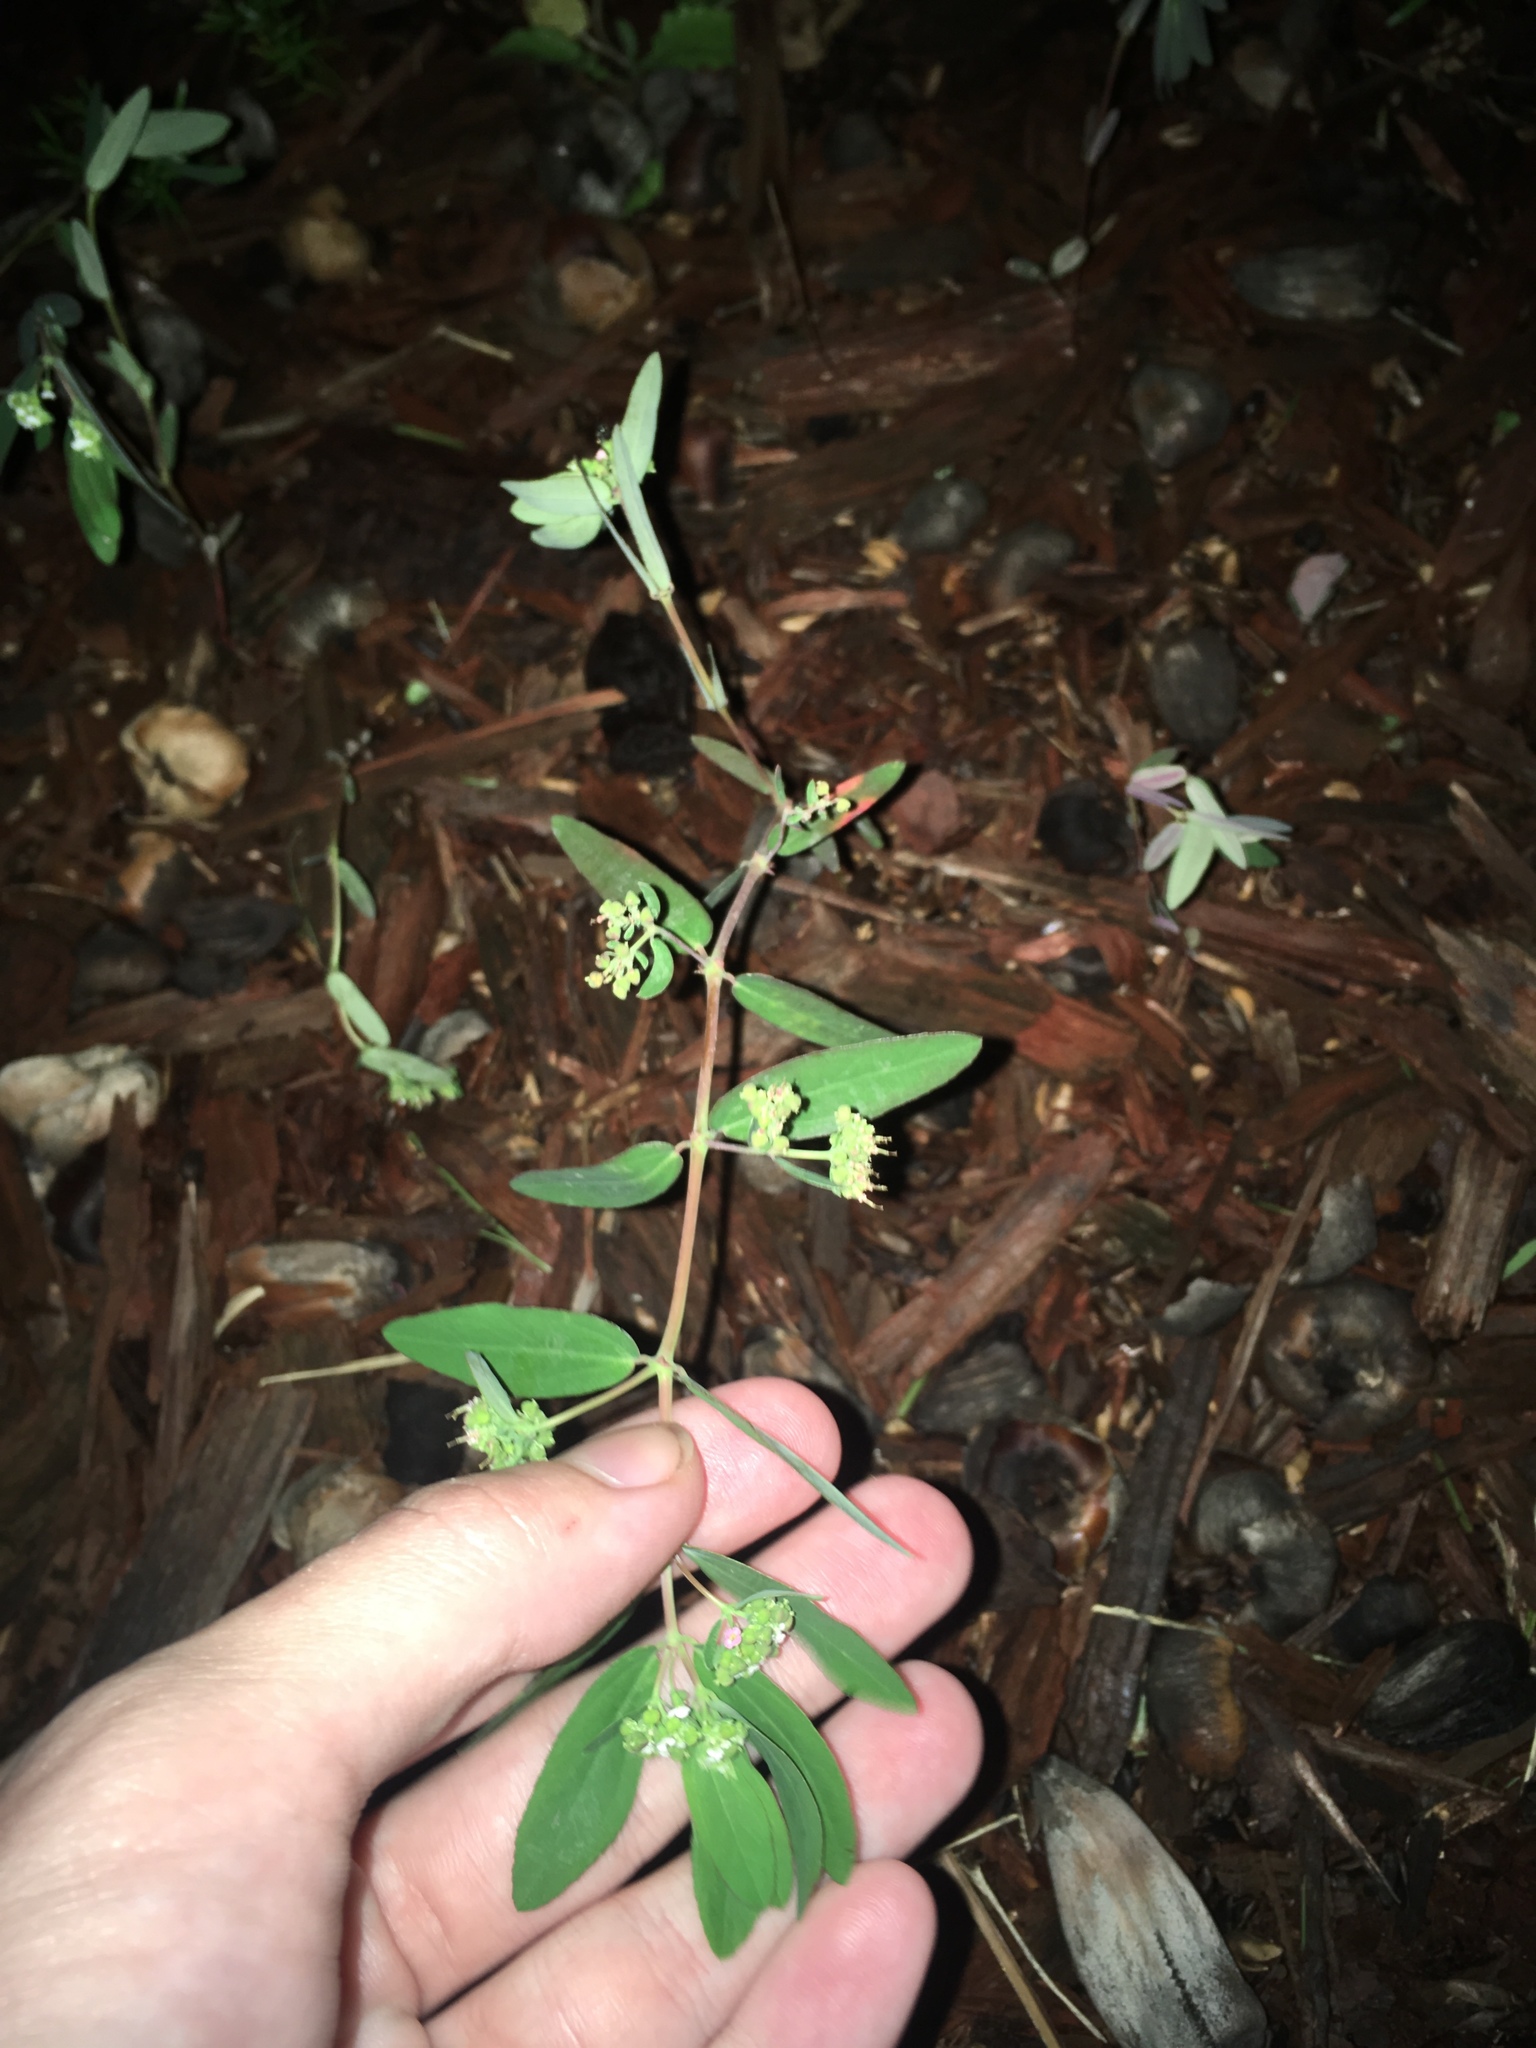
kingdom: Plantae
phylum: Tracheophyta
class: Magnoliopsida
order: Malpighiales
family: Euphorbiaceae
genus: Euphorbia
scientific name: Euphorbia hypericifolia
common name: Graceful sandmat
